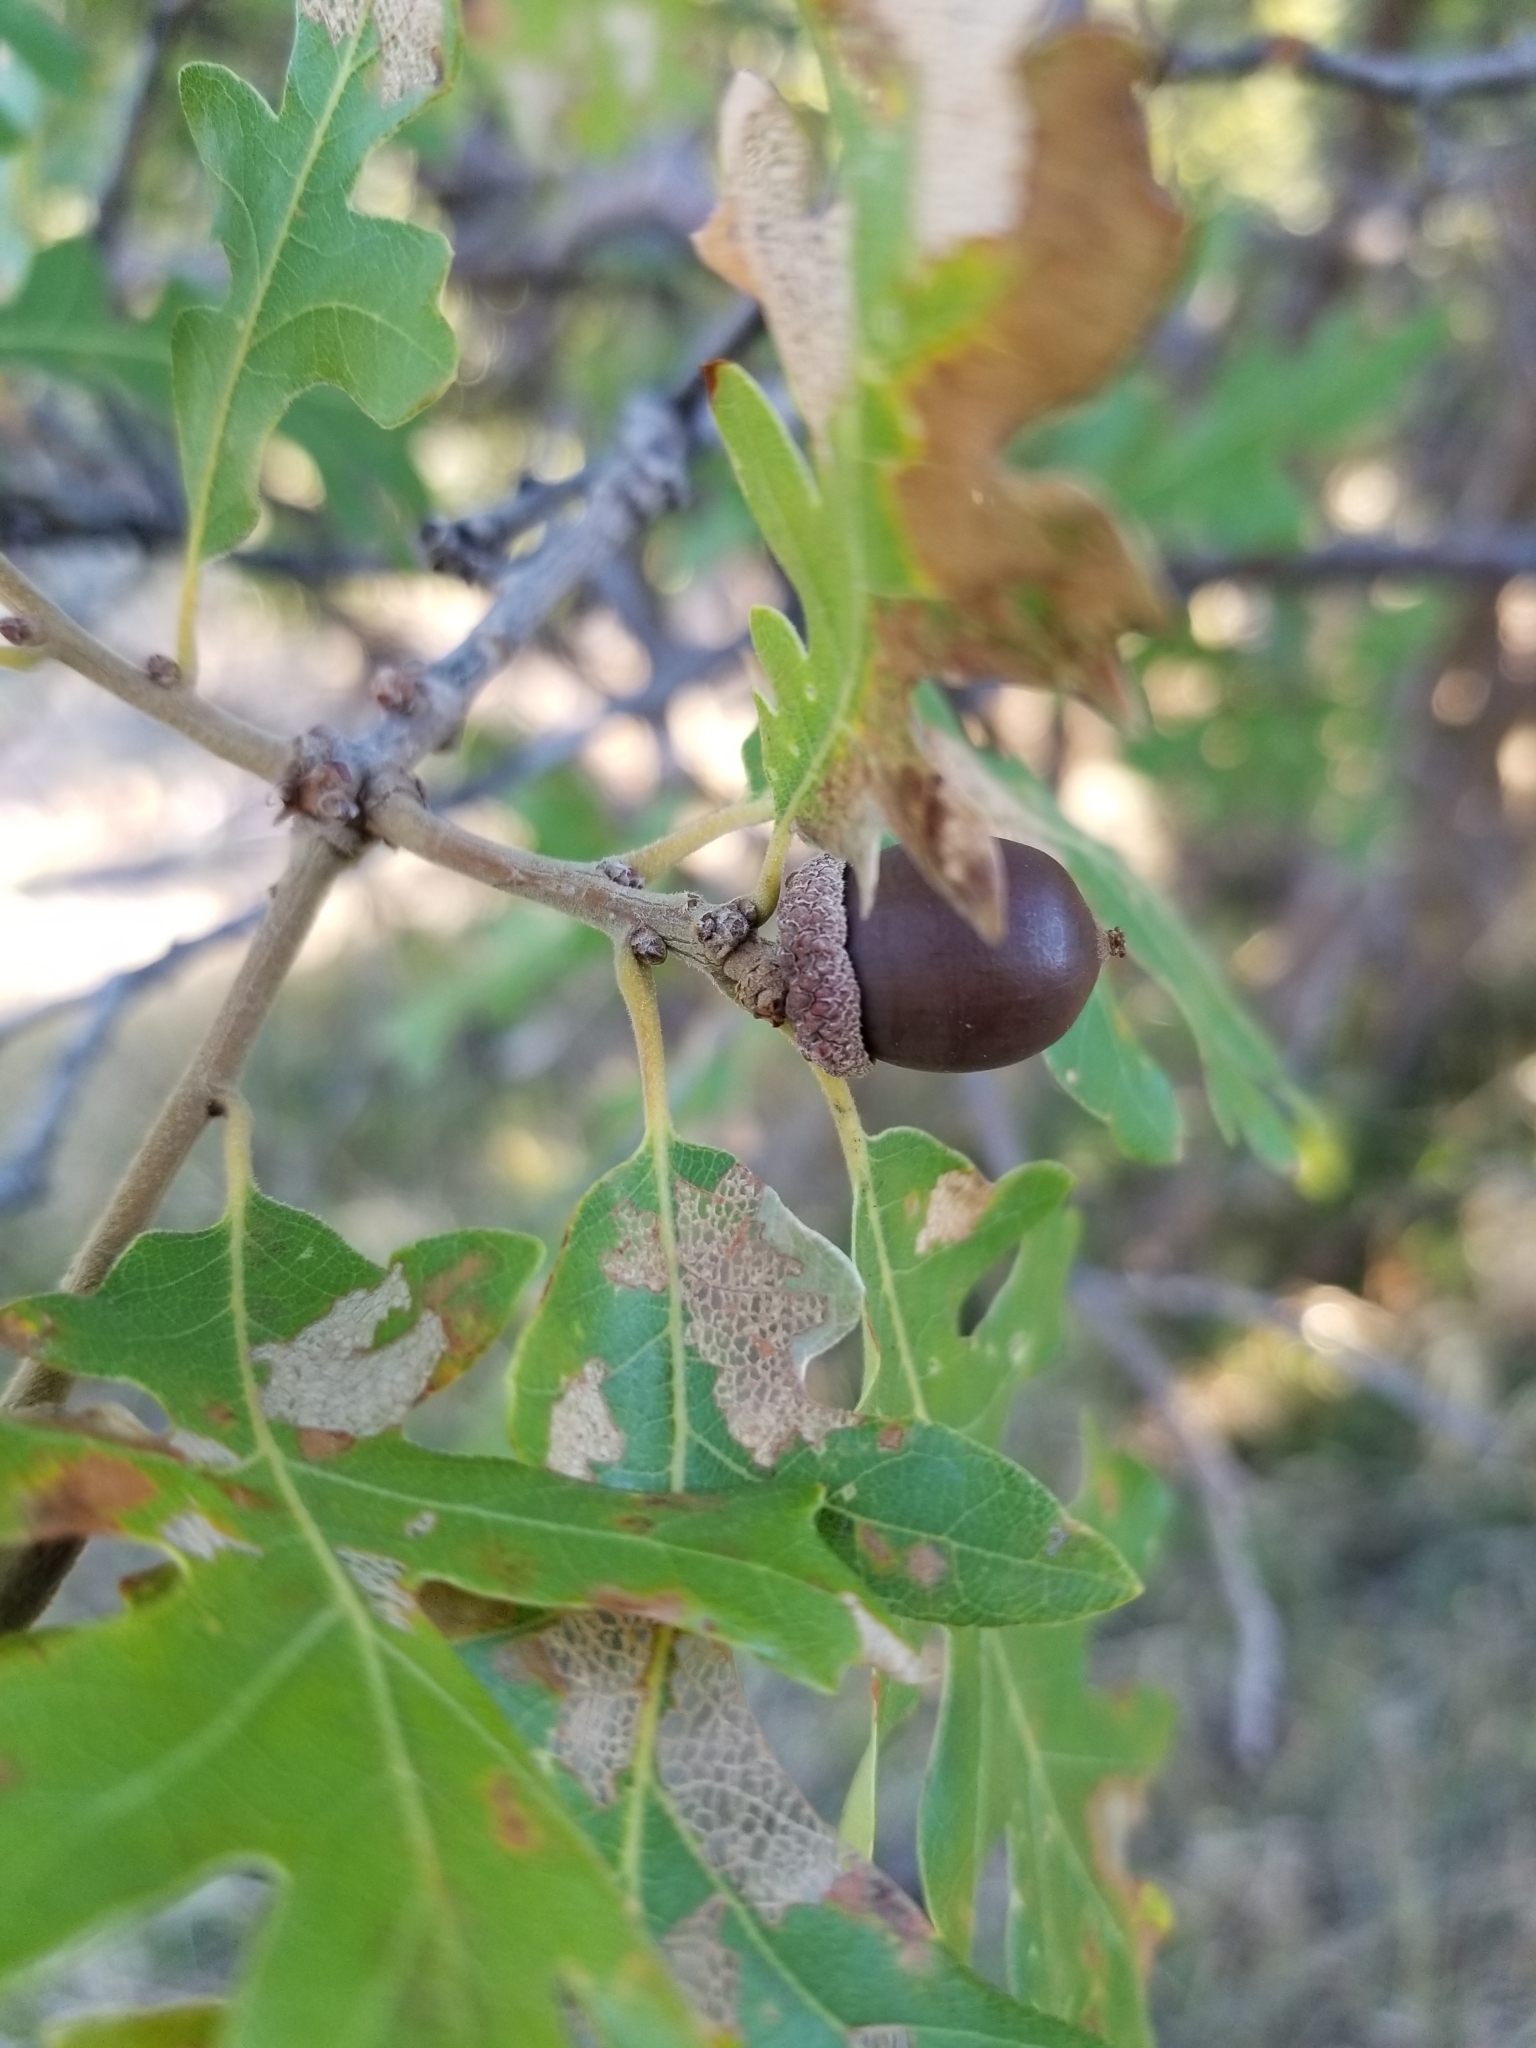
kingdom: Plantae
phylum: Tracheophyta
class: Magnoliopsida
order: Fagales
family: Fagaceae
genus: Quercus
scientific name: Quercus gambelii
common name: Gambel oak
